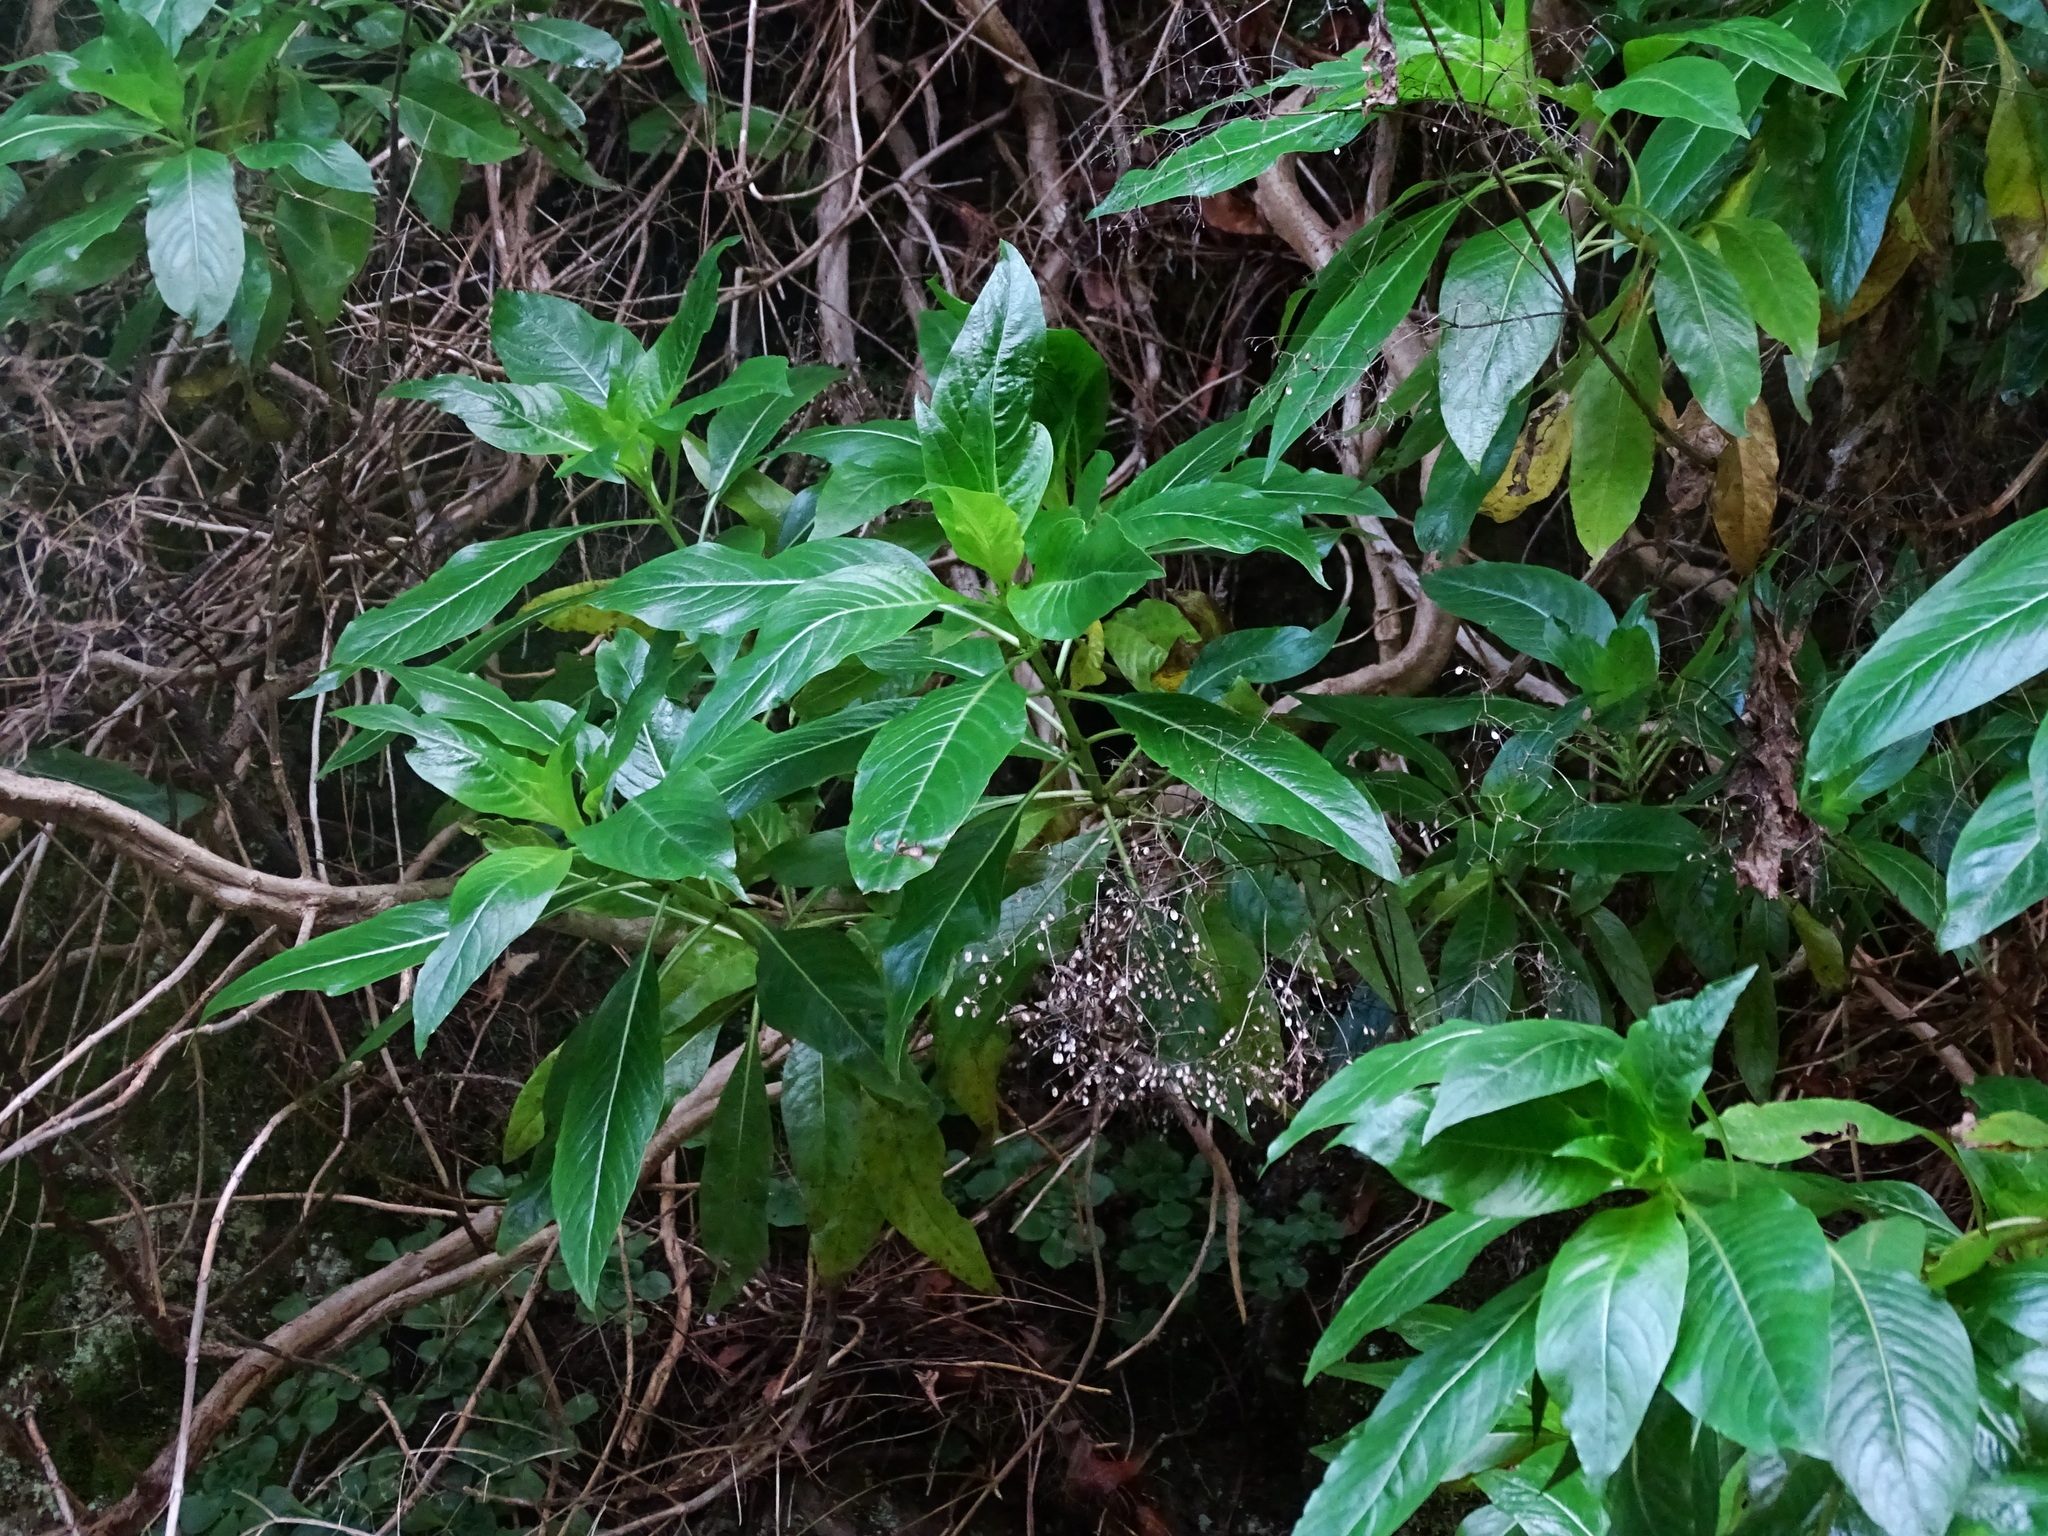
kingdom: Plantae
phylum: Tracheophyta
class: Magnoliopsida
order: Gentianales
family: Rubiaceae
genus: Phyllis
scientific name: Phyllis nobla
